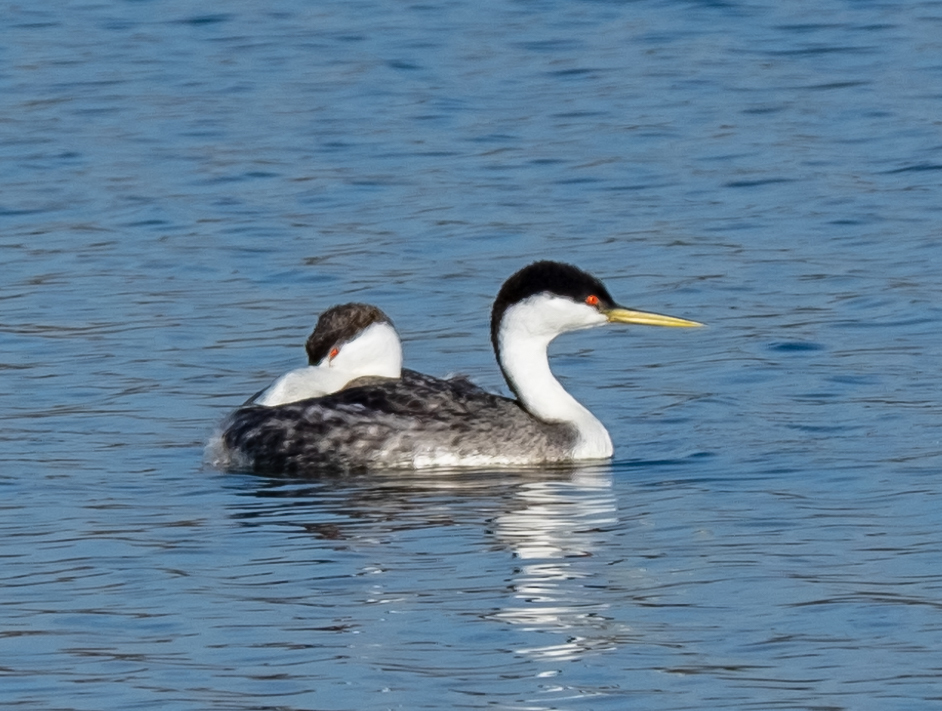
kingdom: Animalia
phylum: Chordata
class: Aves
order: Podicipediformes
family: Podicipedidae
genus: Aechmophorus
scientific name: Aechmophorus occidentalis
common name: Western grebe
